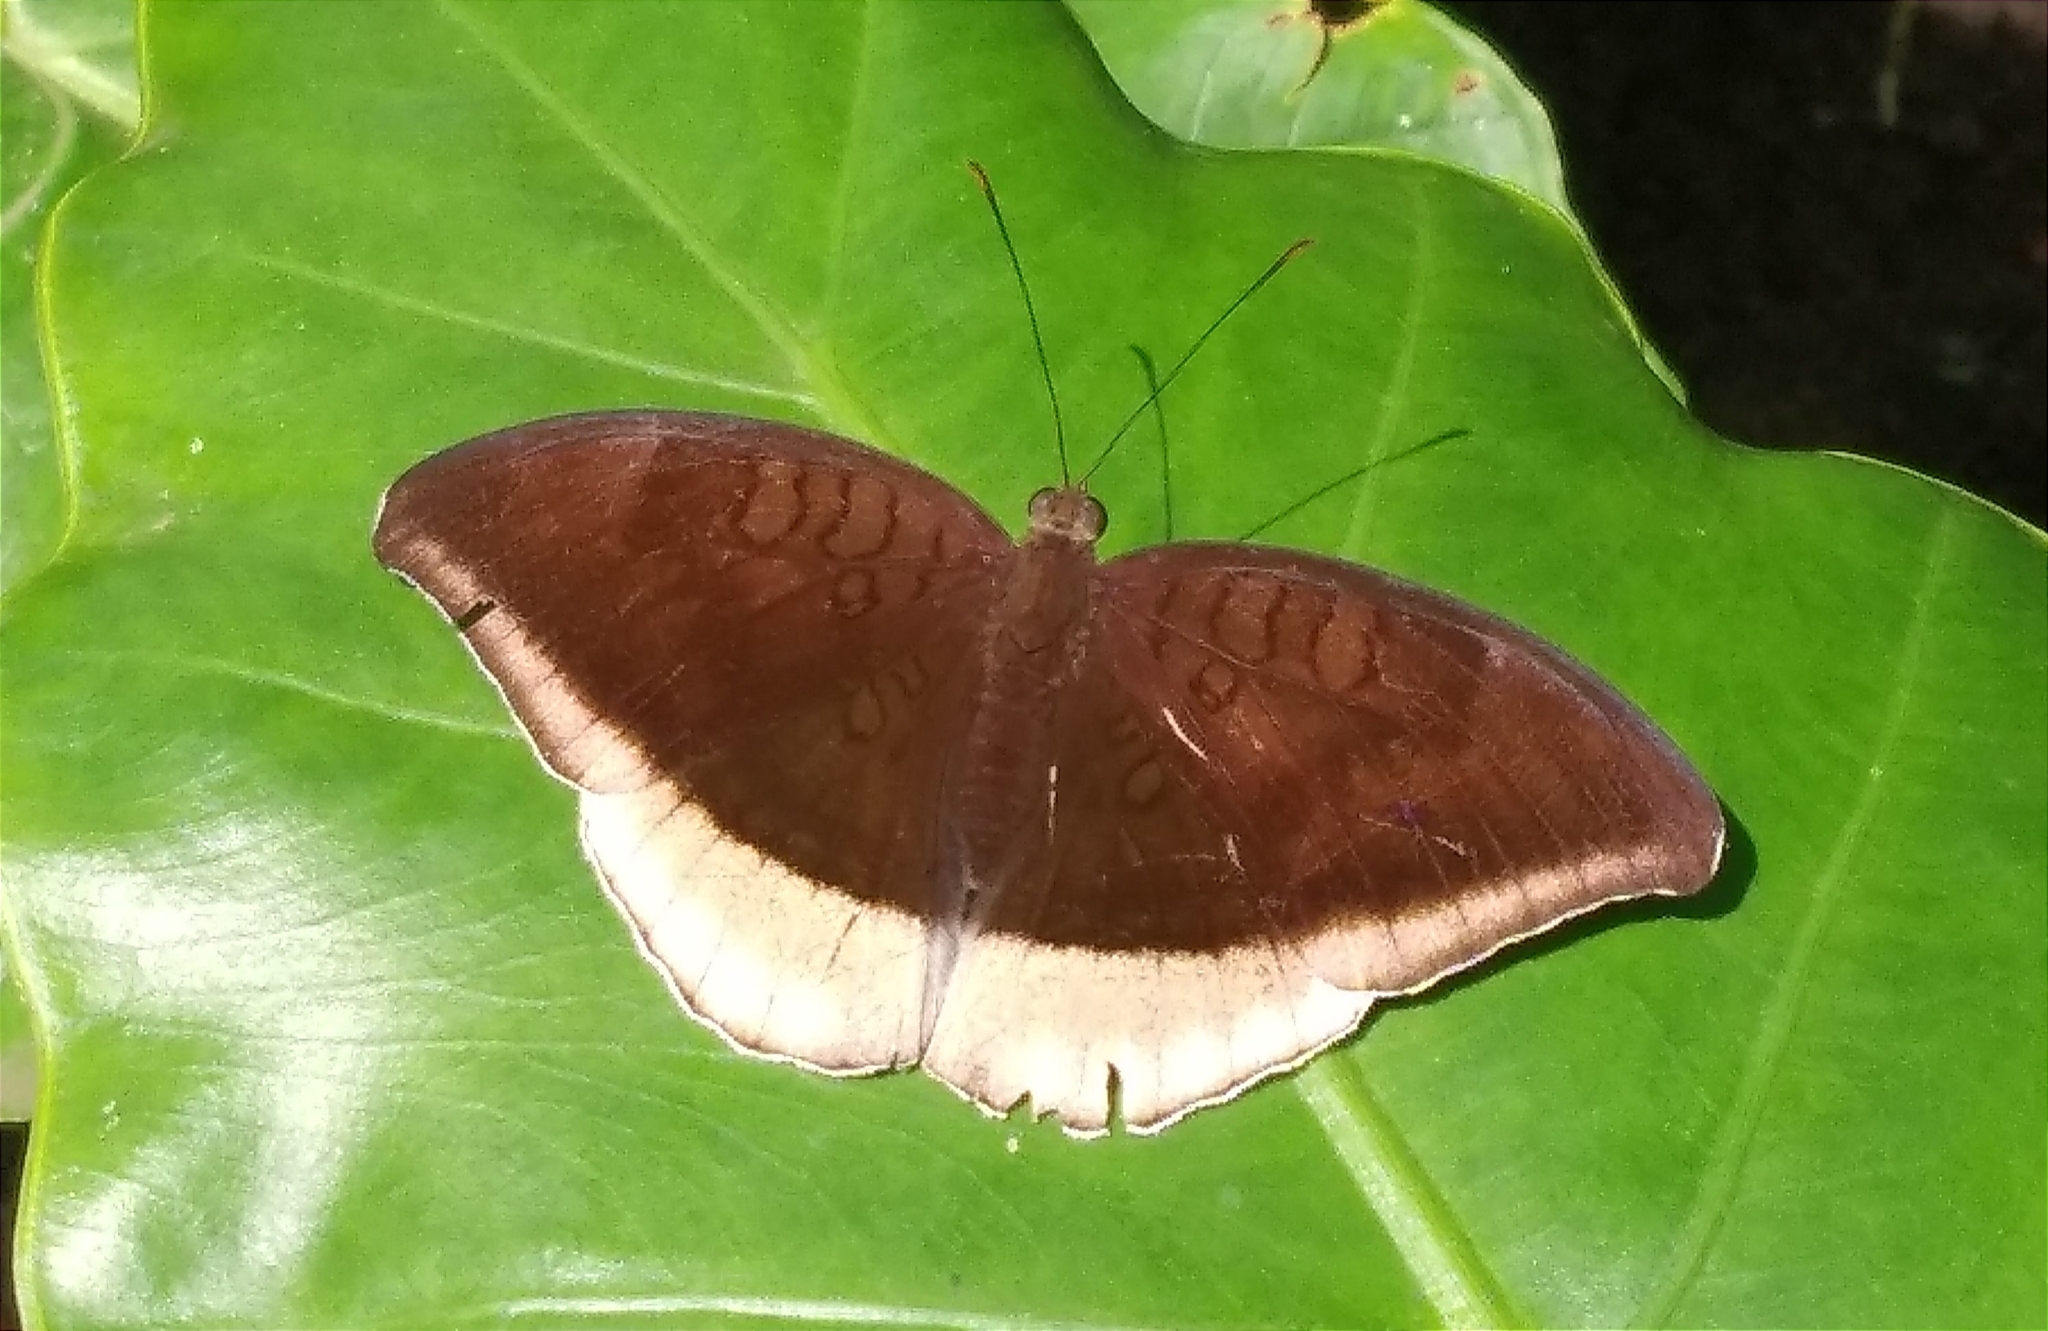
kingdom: Animalia
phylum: Arthropoda
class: Insecta
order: Lepidoptera
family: Nymphalidae
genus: Tanaecia
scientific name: Tanaecia lepidea
